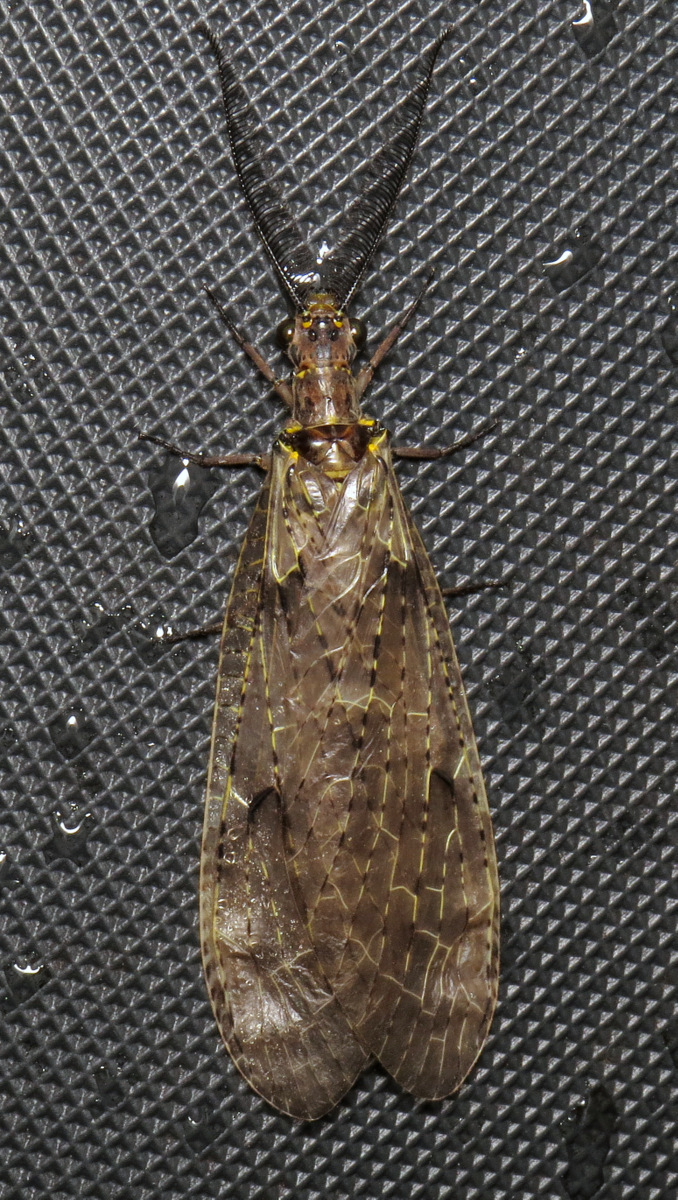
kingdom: Animalia
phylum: Arthropoda
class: Insecta
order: Megaloptera
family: Corydalidae
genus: Chauliodes
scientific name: Chauliodes rastricornis
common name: Spring fishfly
